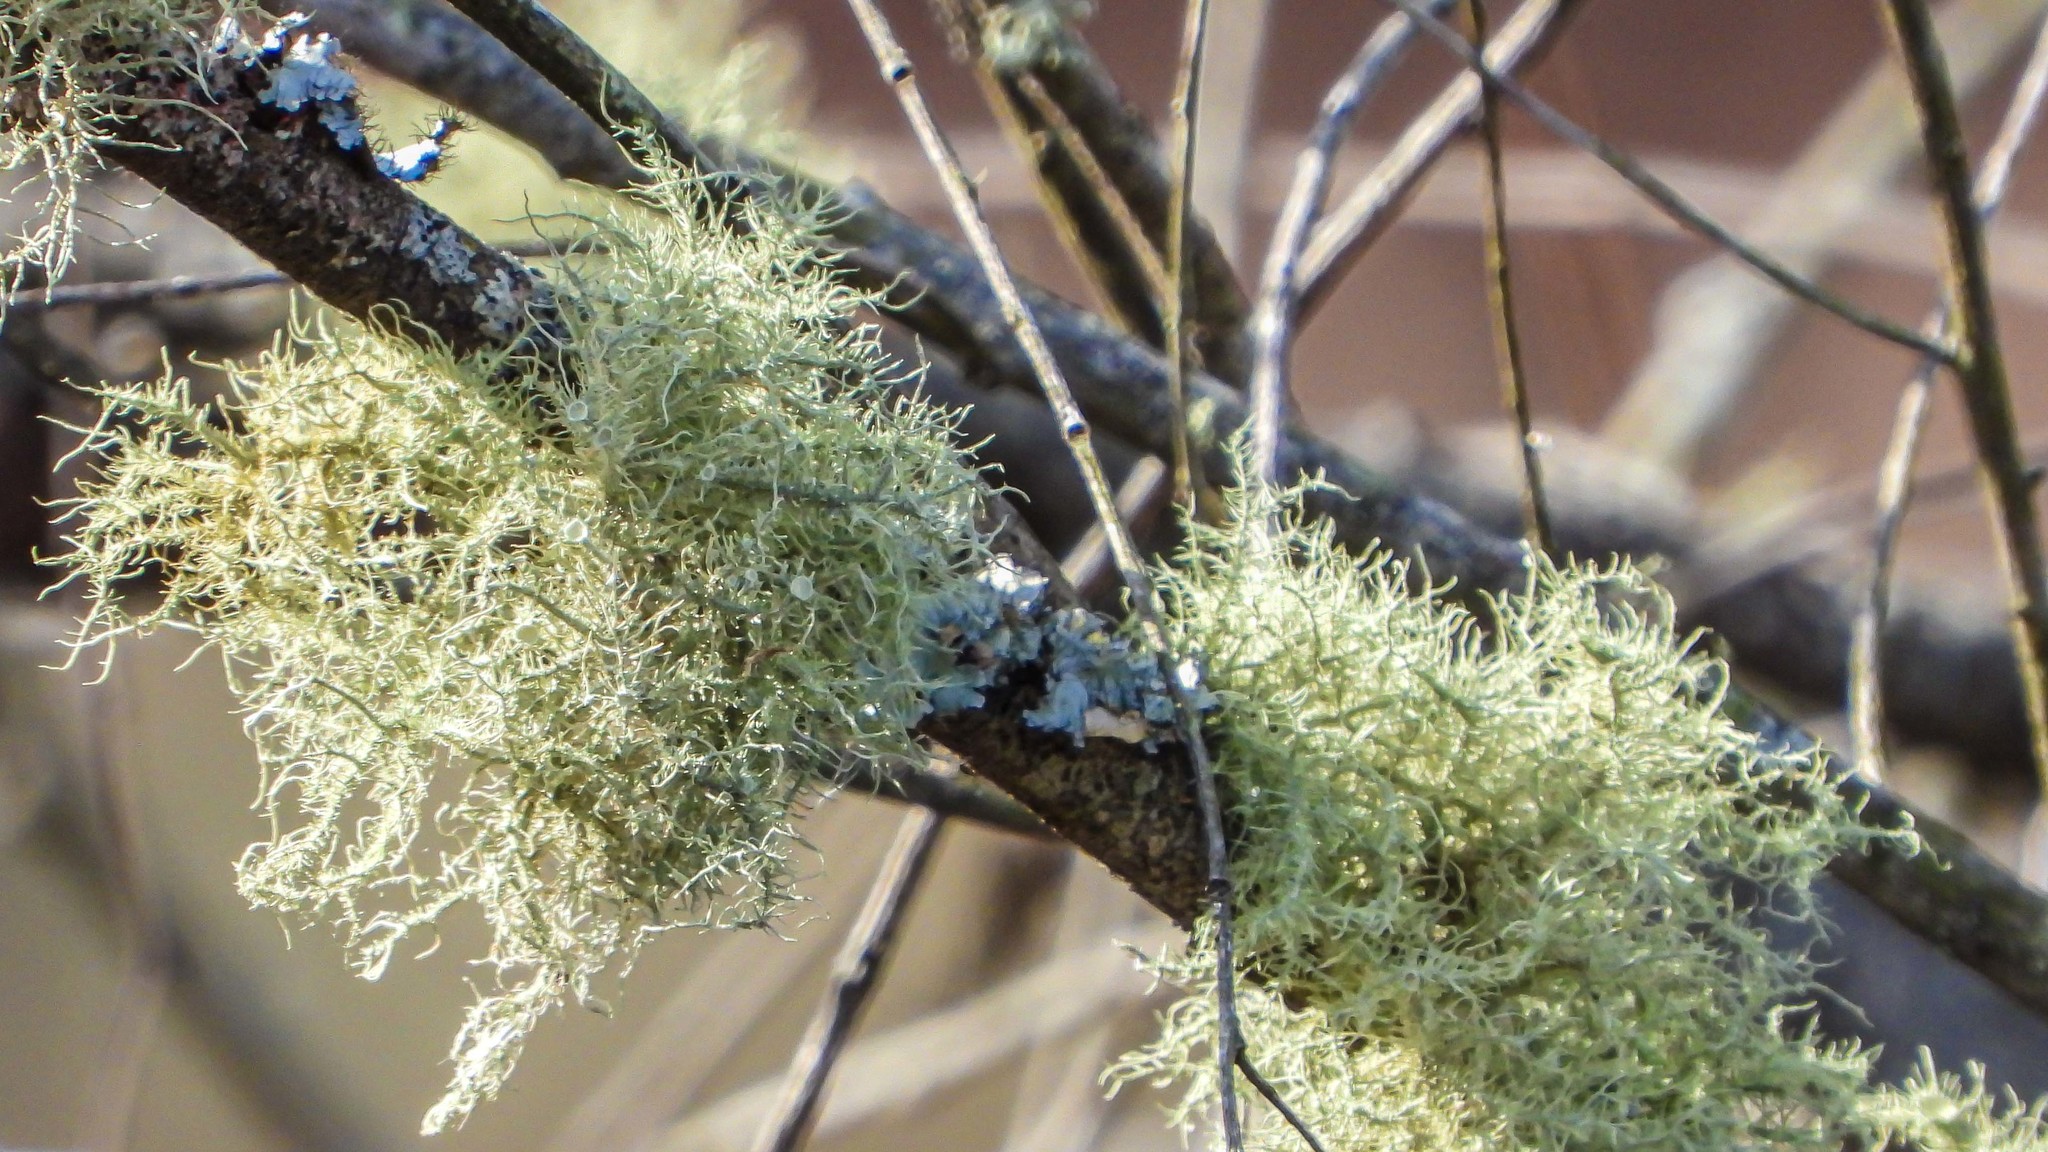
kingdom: Fungi
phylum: Ascomycota
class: Lecanoromycetes
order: Lecanorales
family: Parmeliaceae
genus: Usnea
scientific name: Usnea strigosa
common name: Bushy beard lichen
